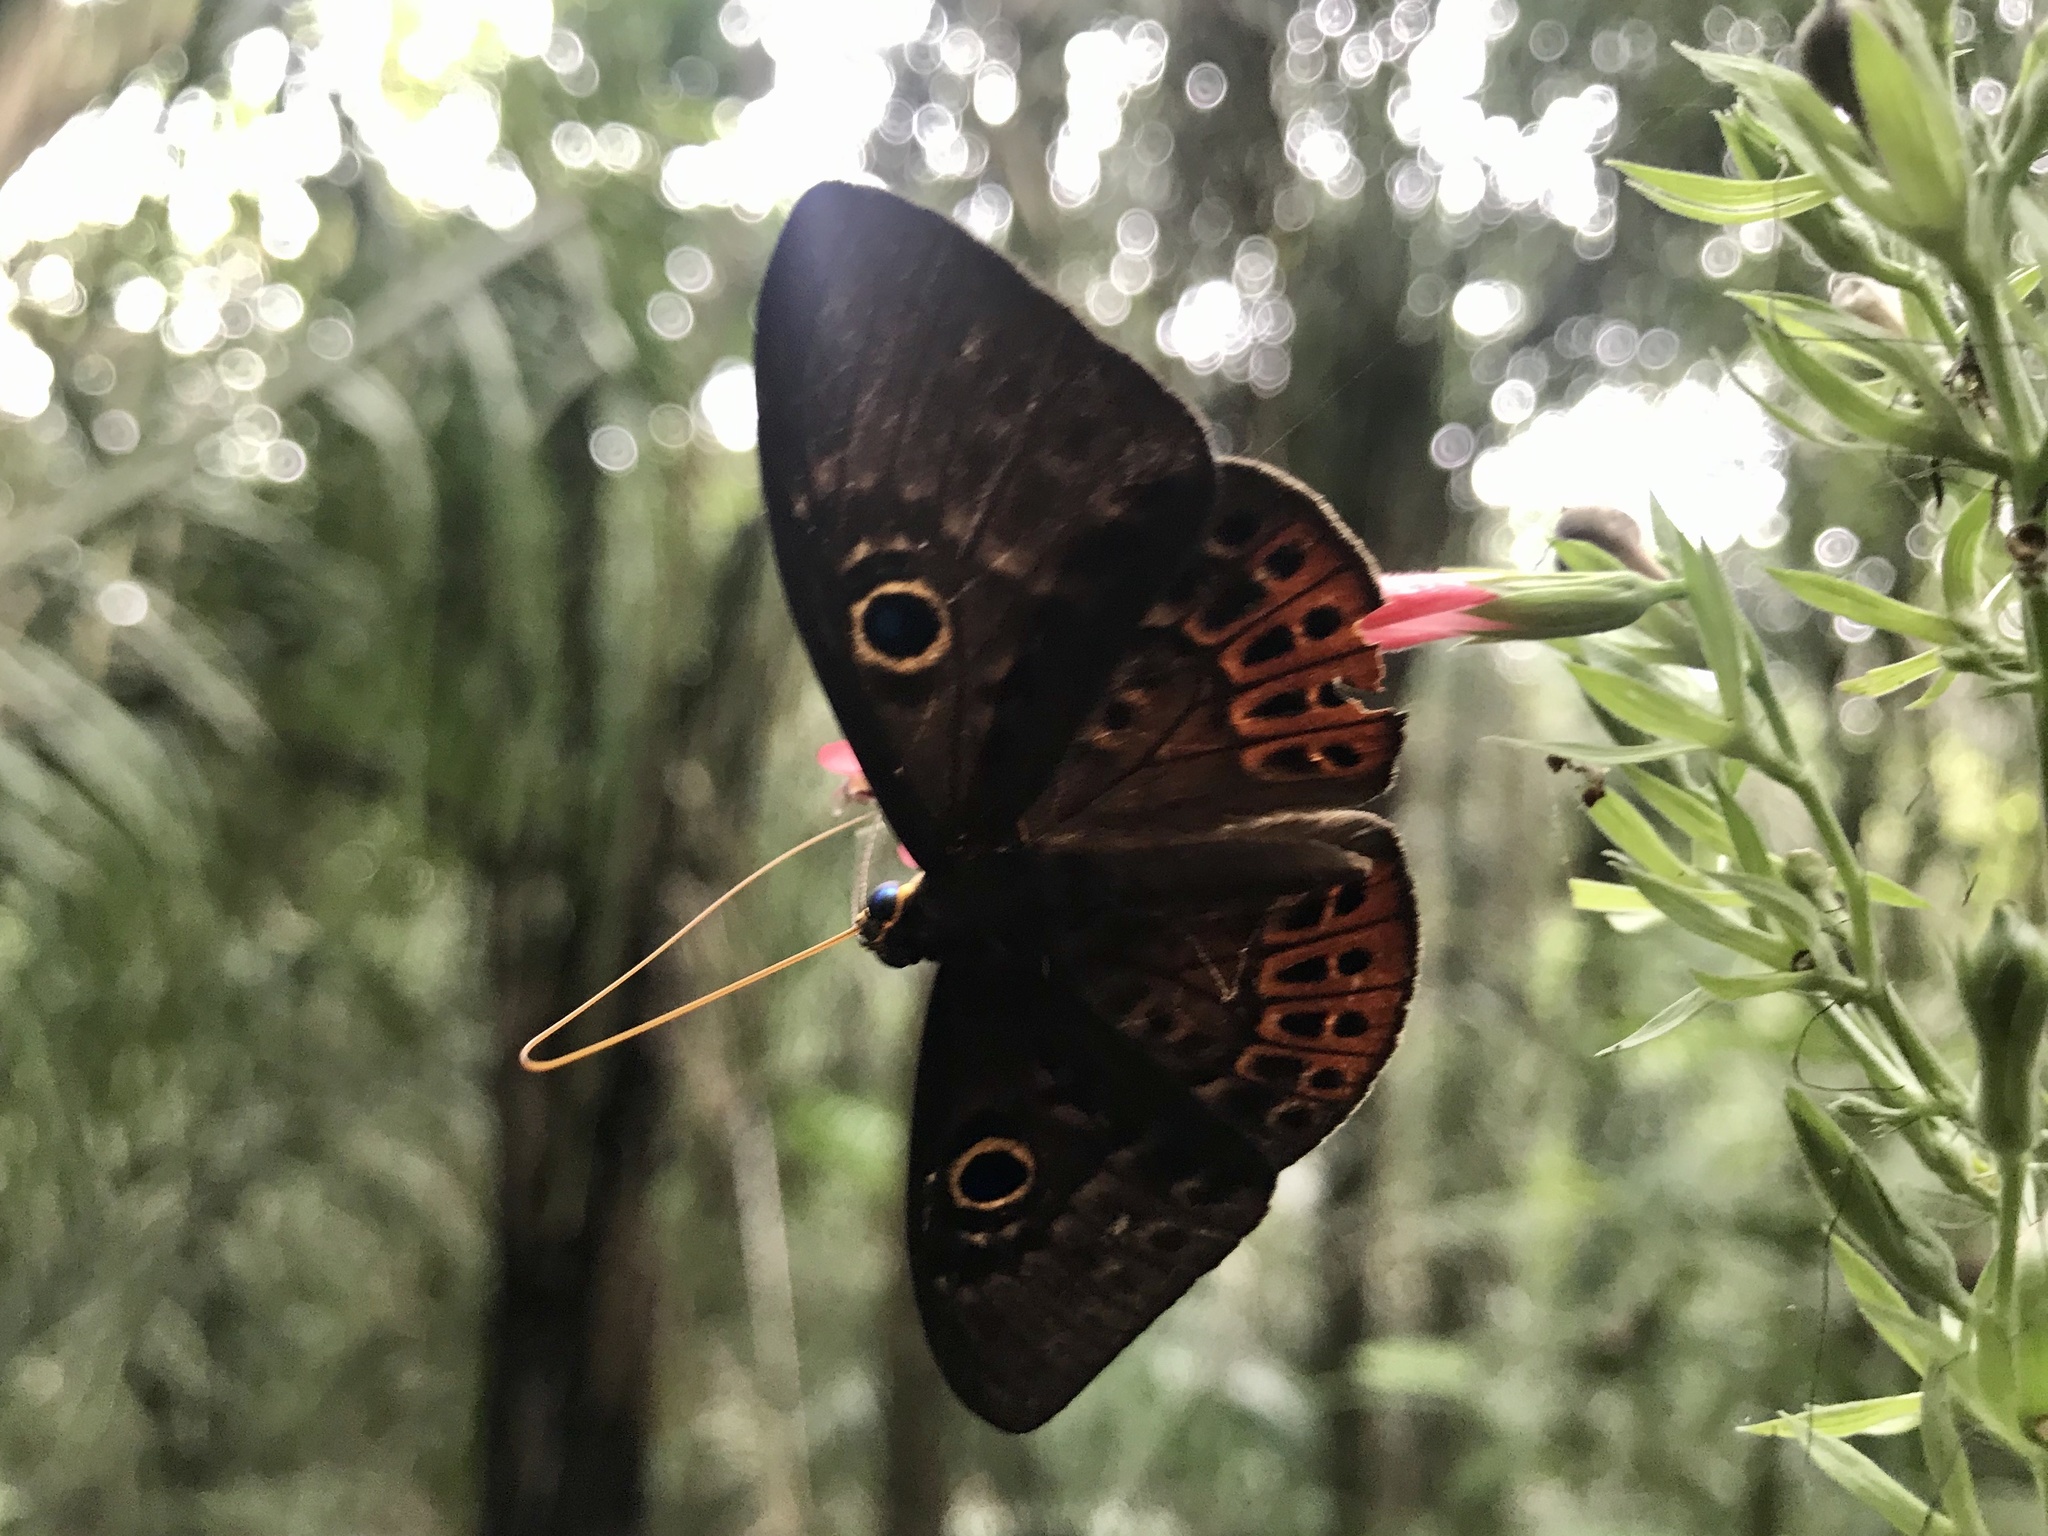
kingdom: Animalia
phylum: Cnidaria
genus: Eurybia
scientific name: Eurybia patrona
